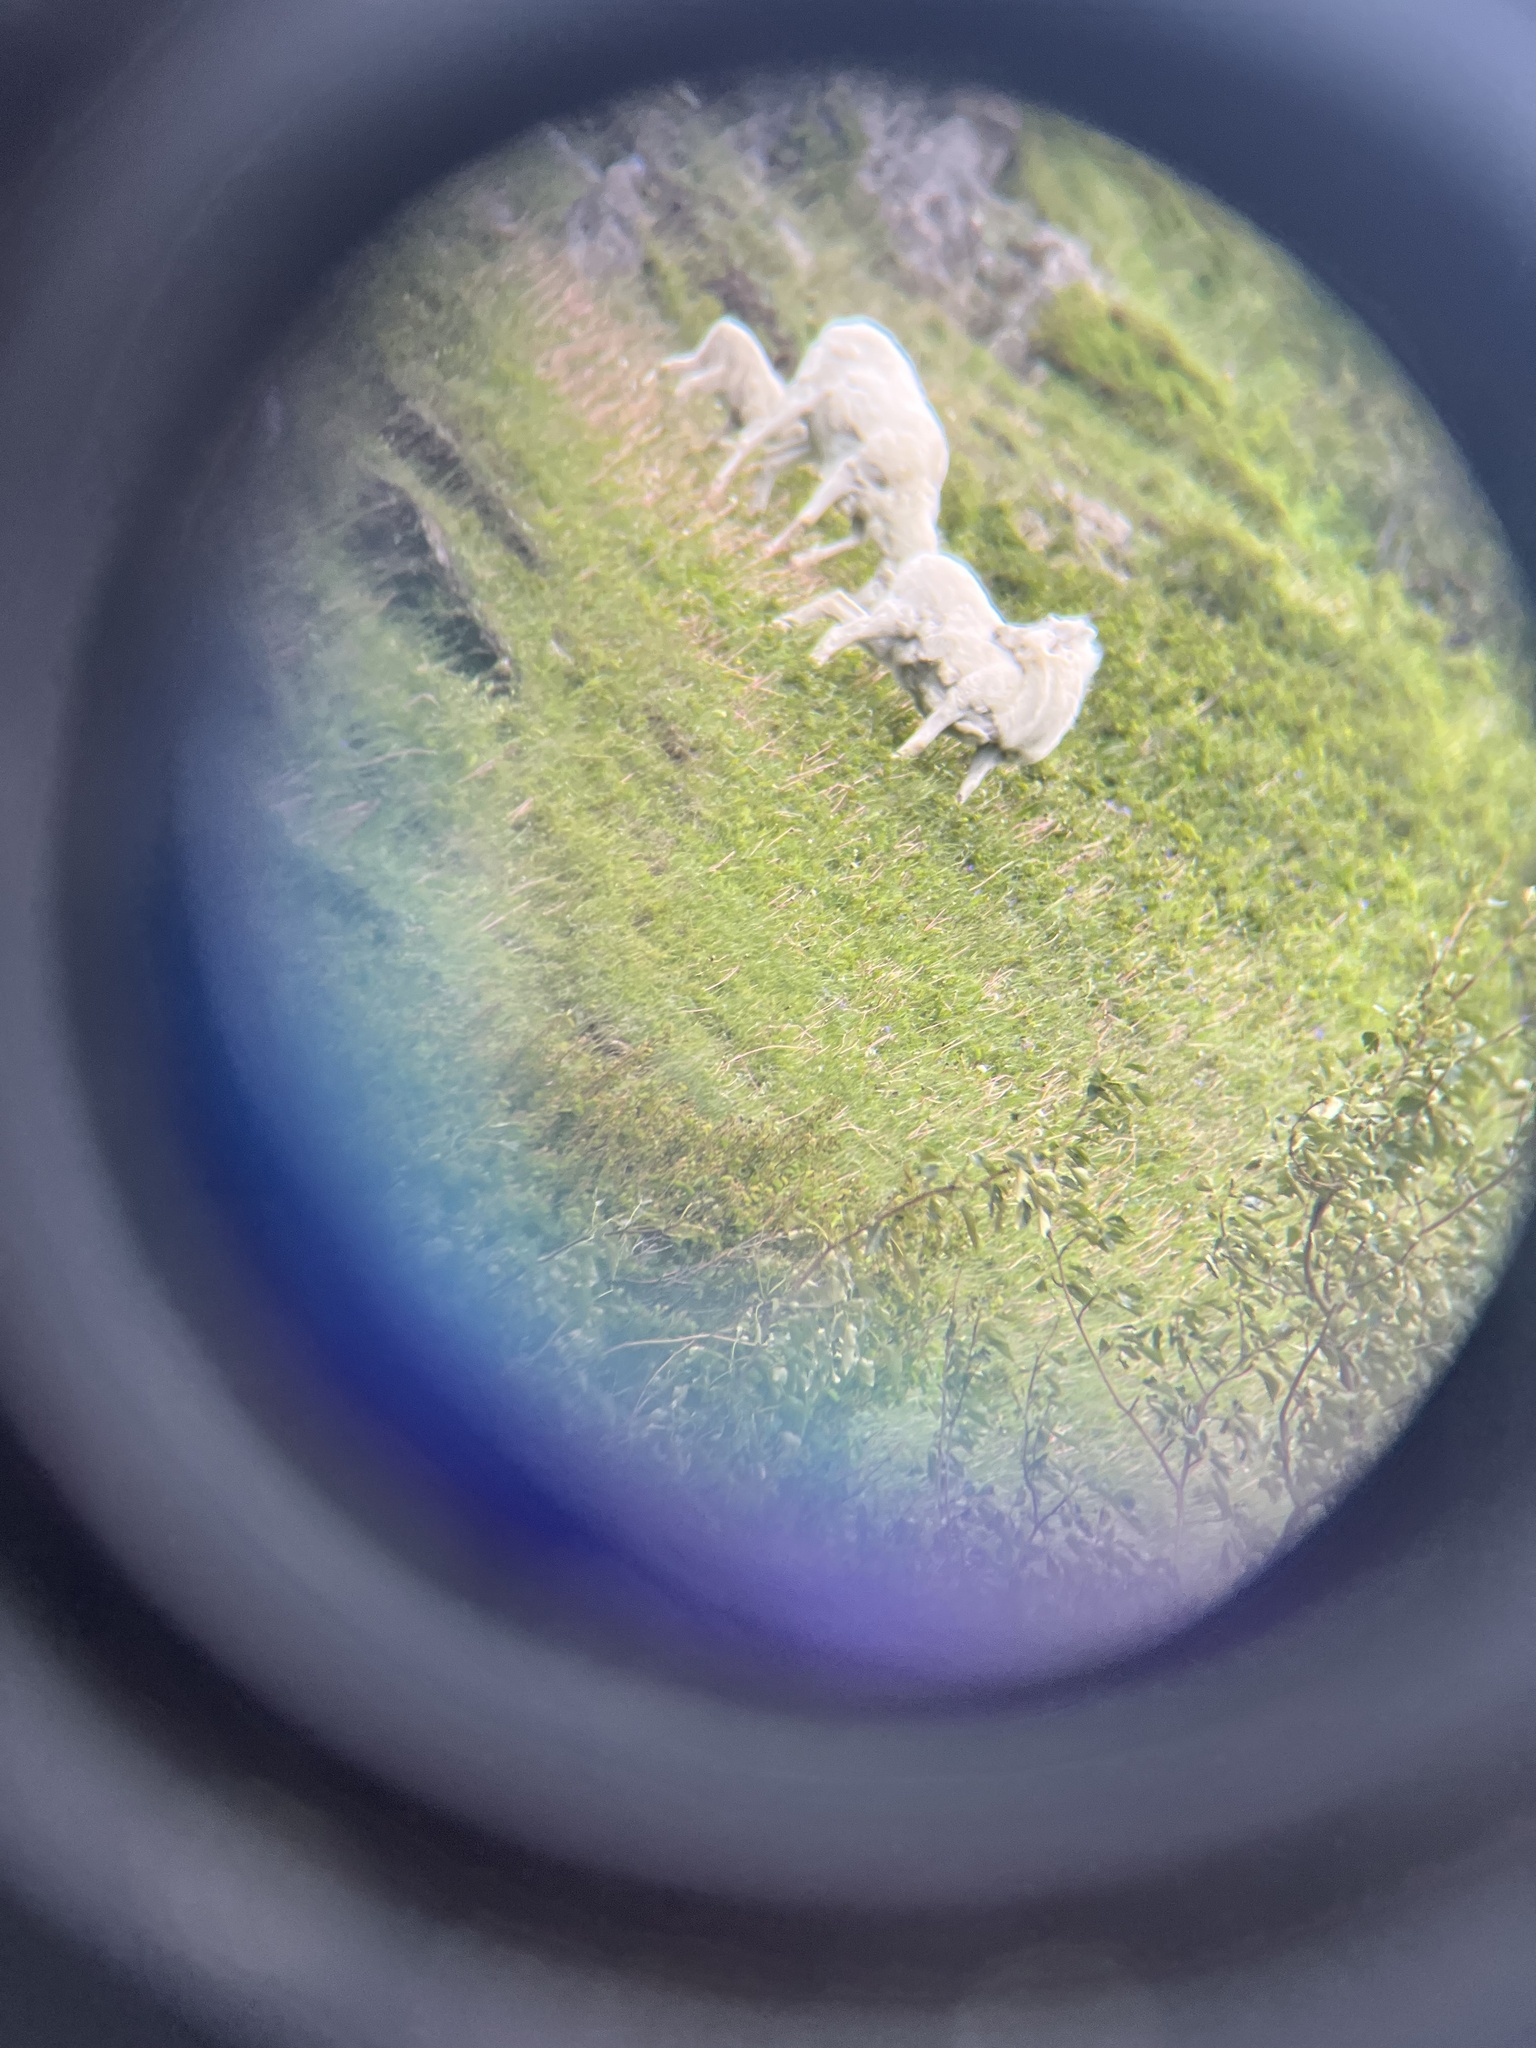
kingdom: Animalia
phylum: Chordata
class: Mammalia
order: Artiodactyla
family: Bovidae
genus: Ovis
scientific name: Ovis dalli
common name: Dall's sheep
